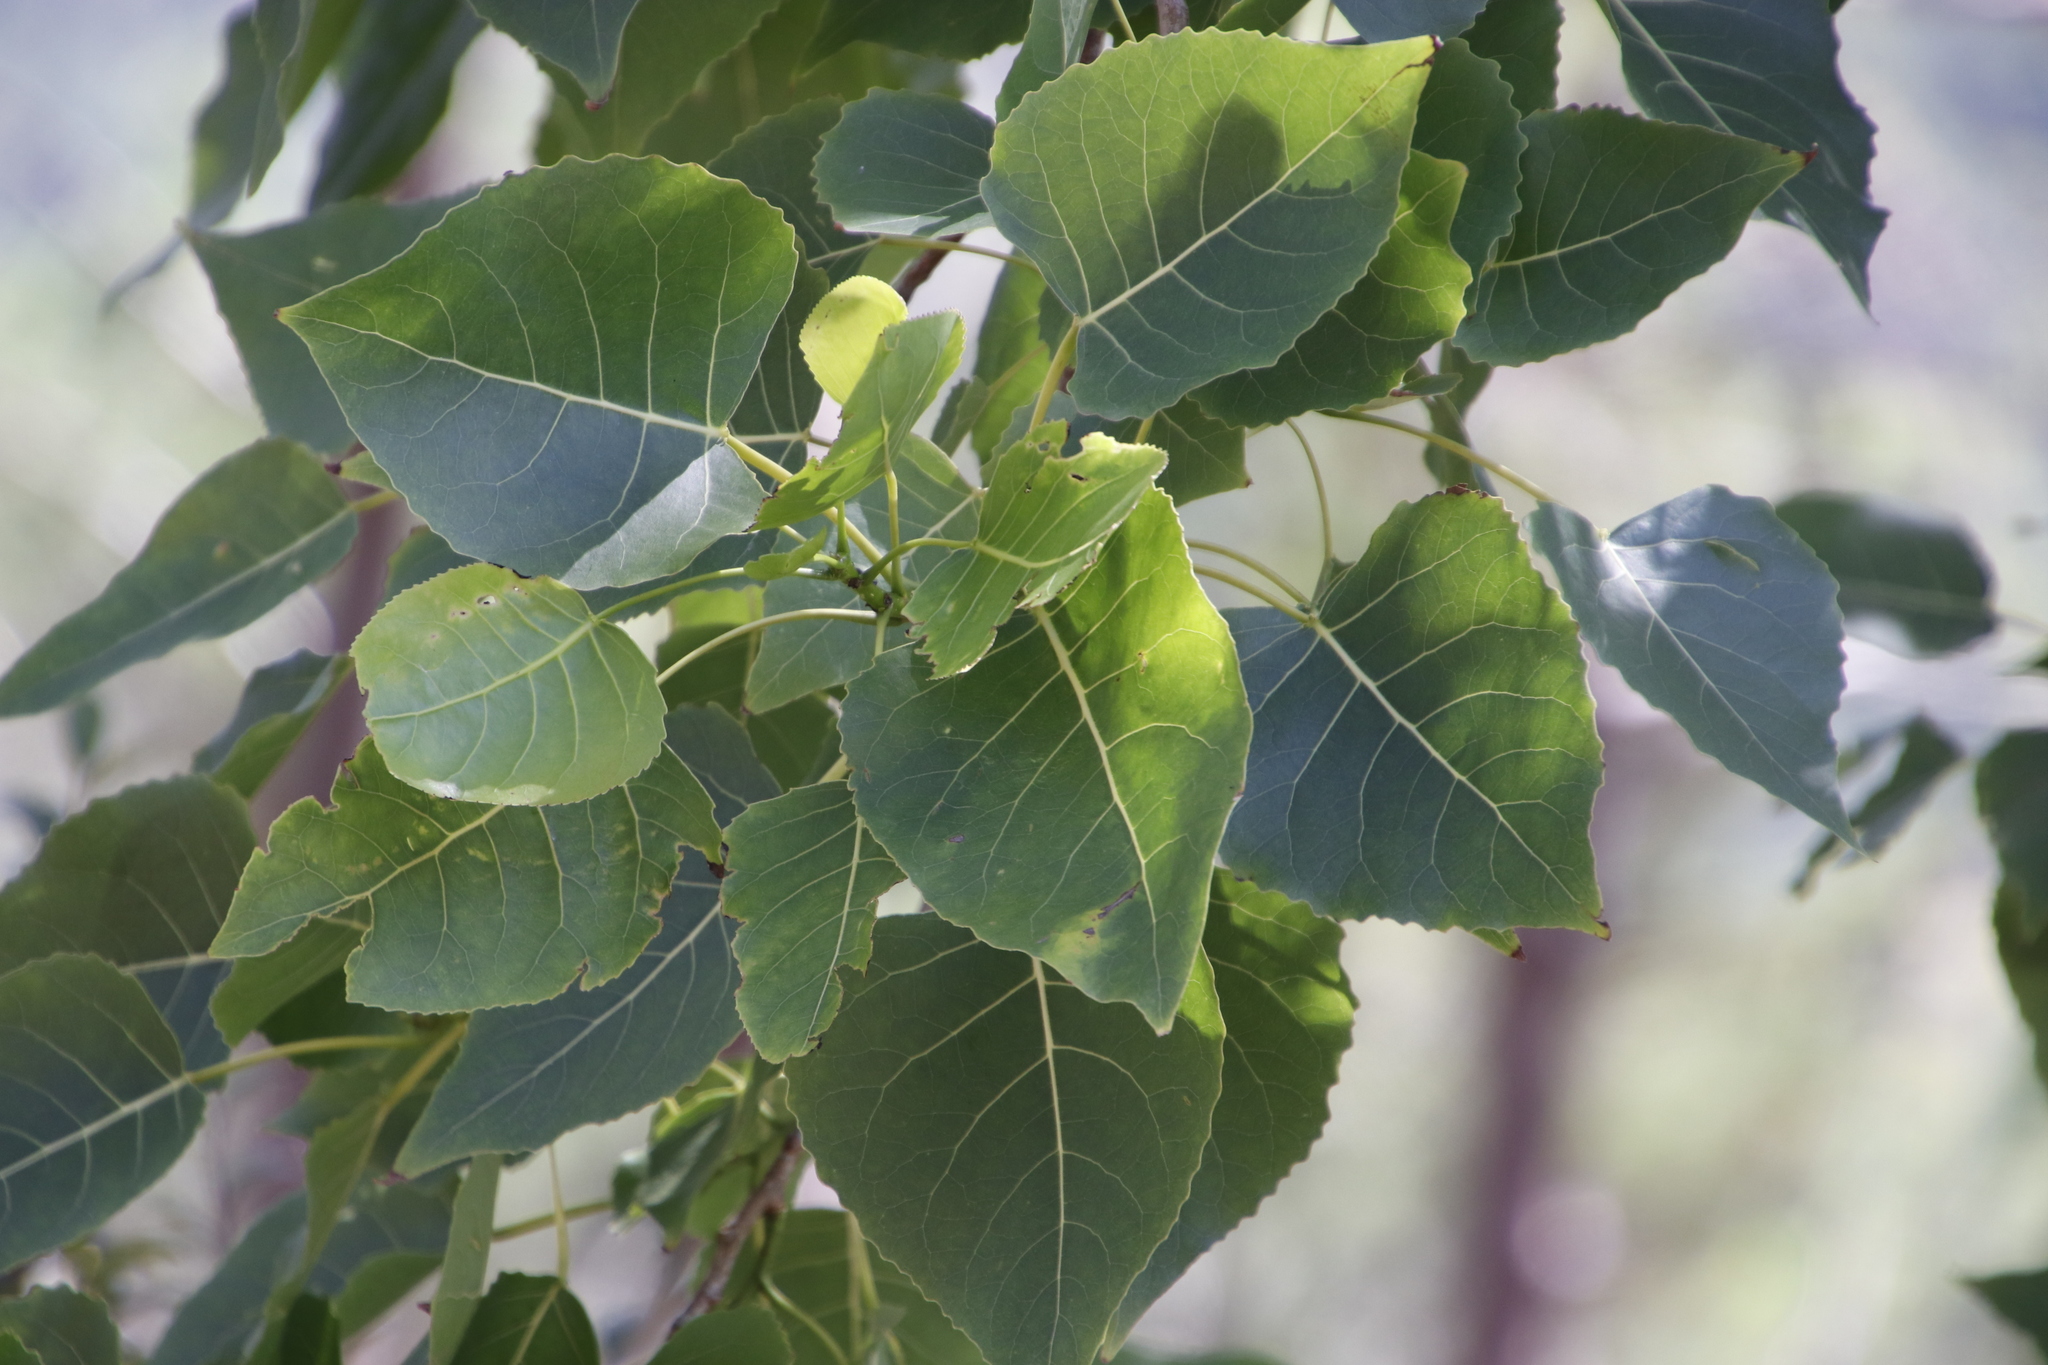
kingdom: Plantae
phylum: Tracheophyta
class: Magnoliopsida
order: Malpighiales
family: Salicaceae
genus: Populus
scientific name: Populus deltoides
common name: Eastern cottonwood
